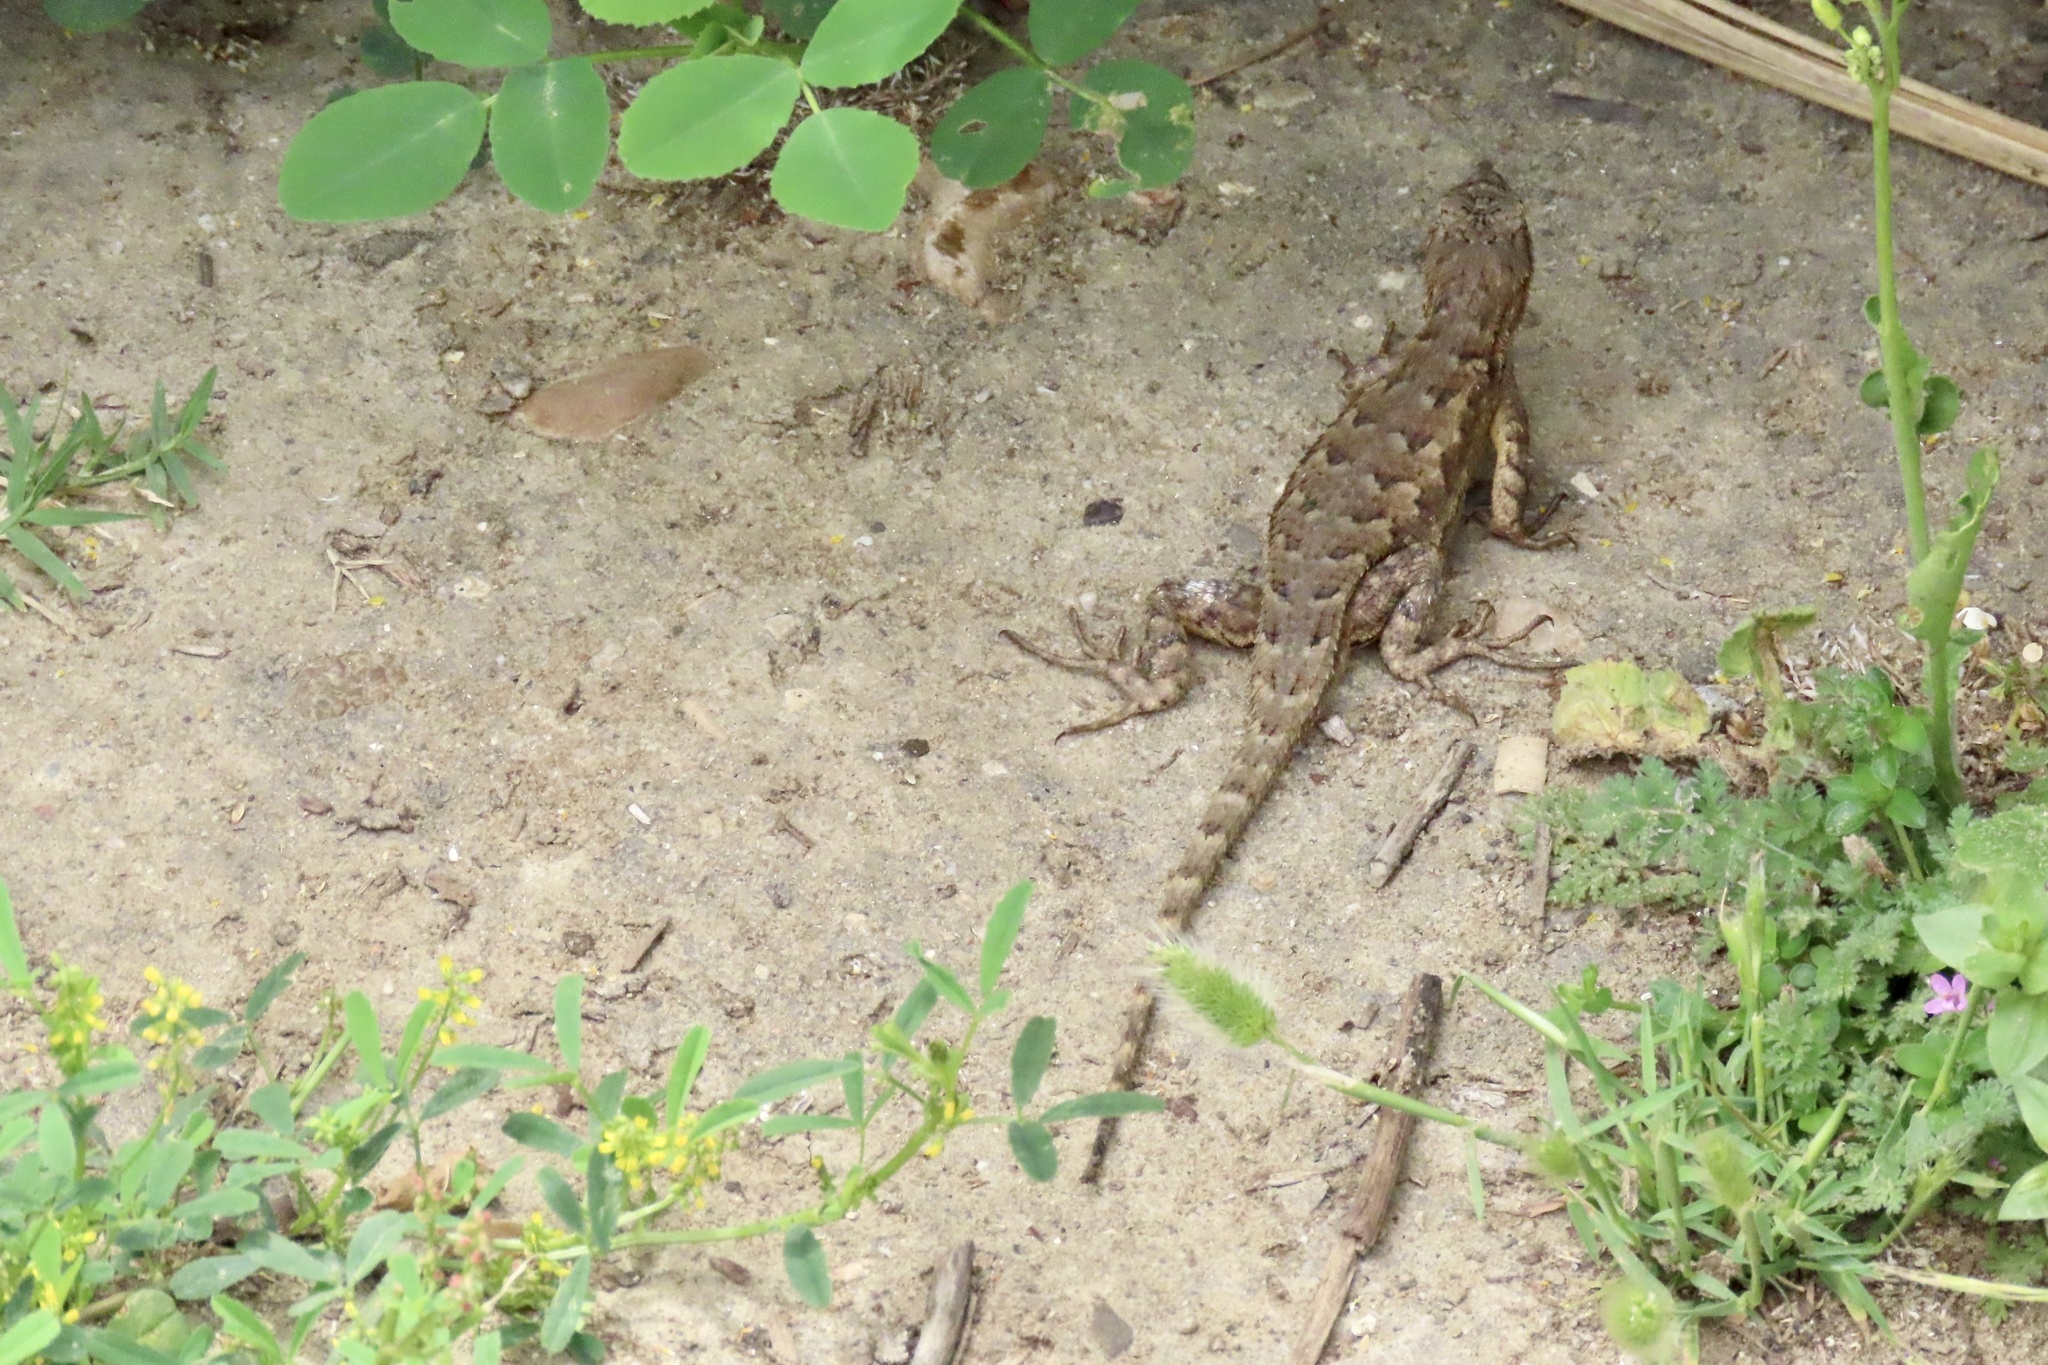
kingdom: Animalia
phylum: Chordata
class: Squamata
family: Phrynosomatidae
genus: Sceloporus
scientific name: Sceloporus occidentalis
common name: Western fence lizard
